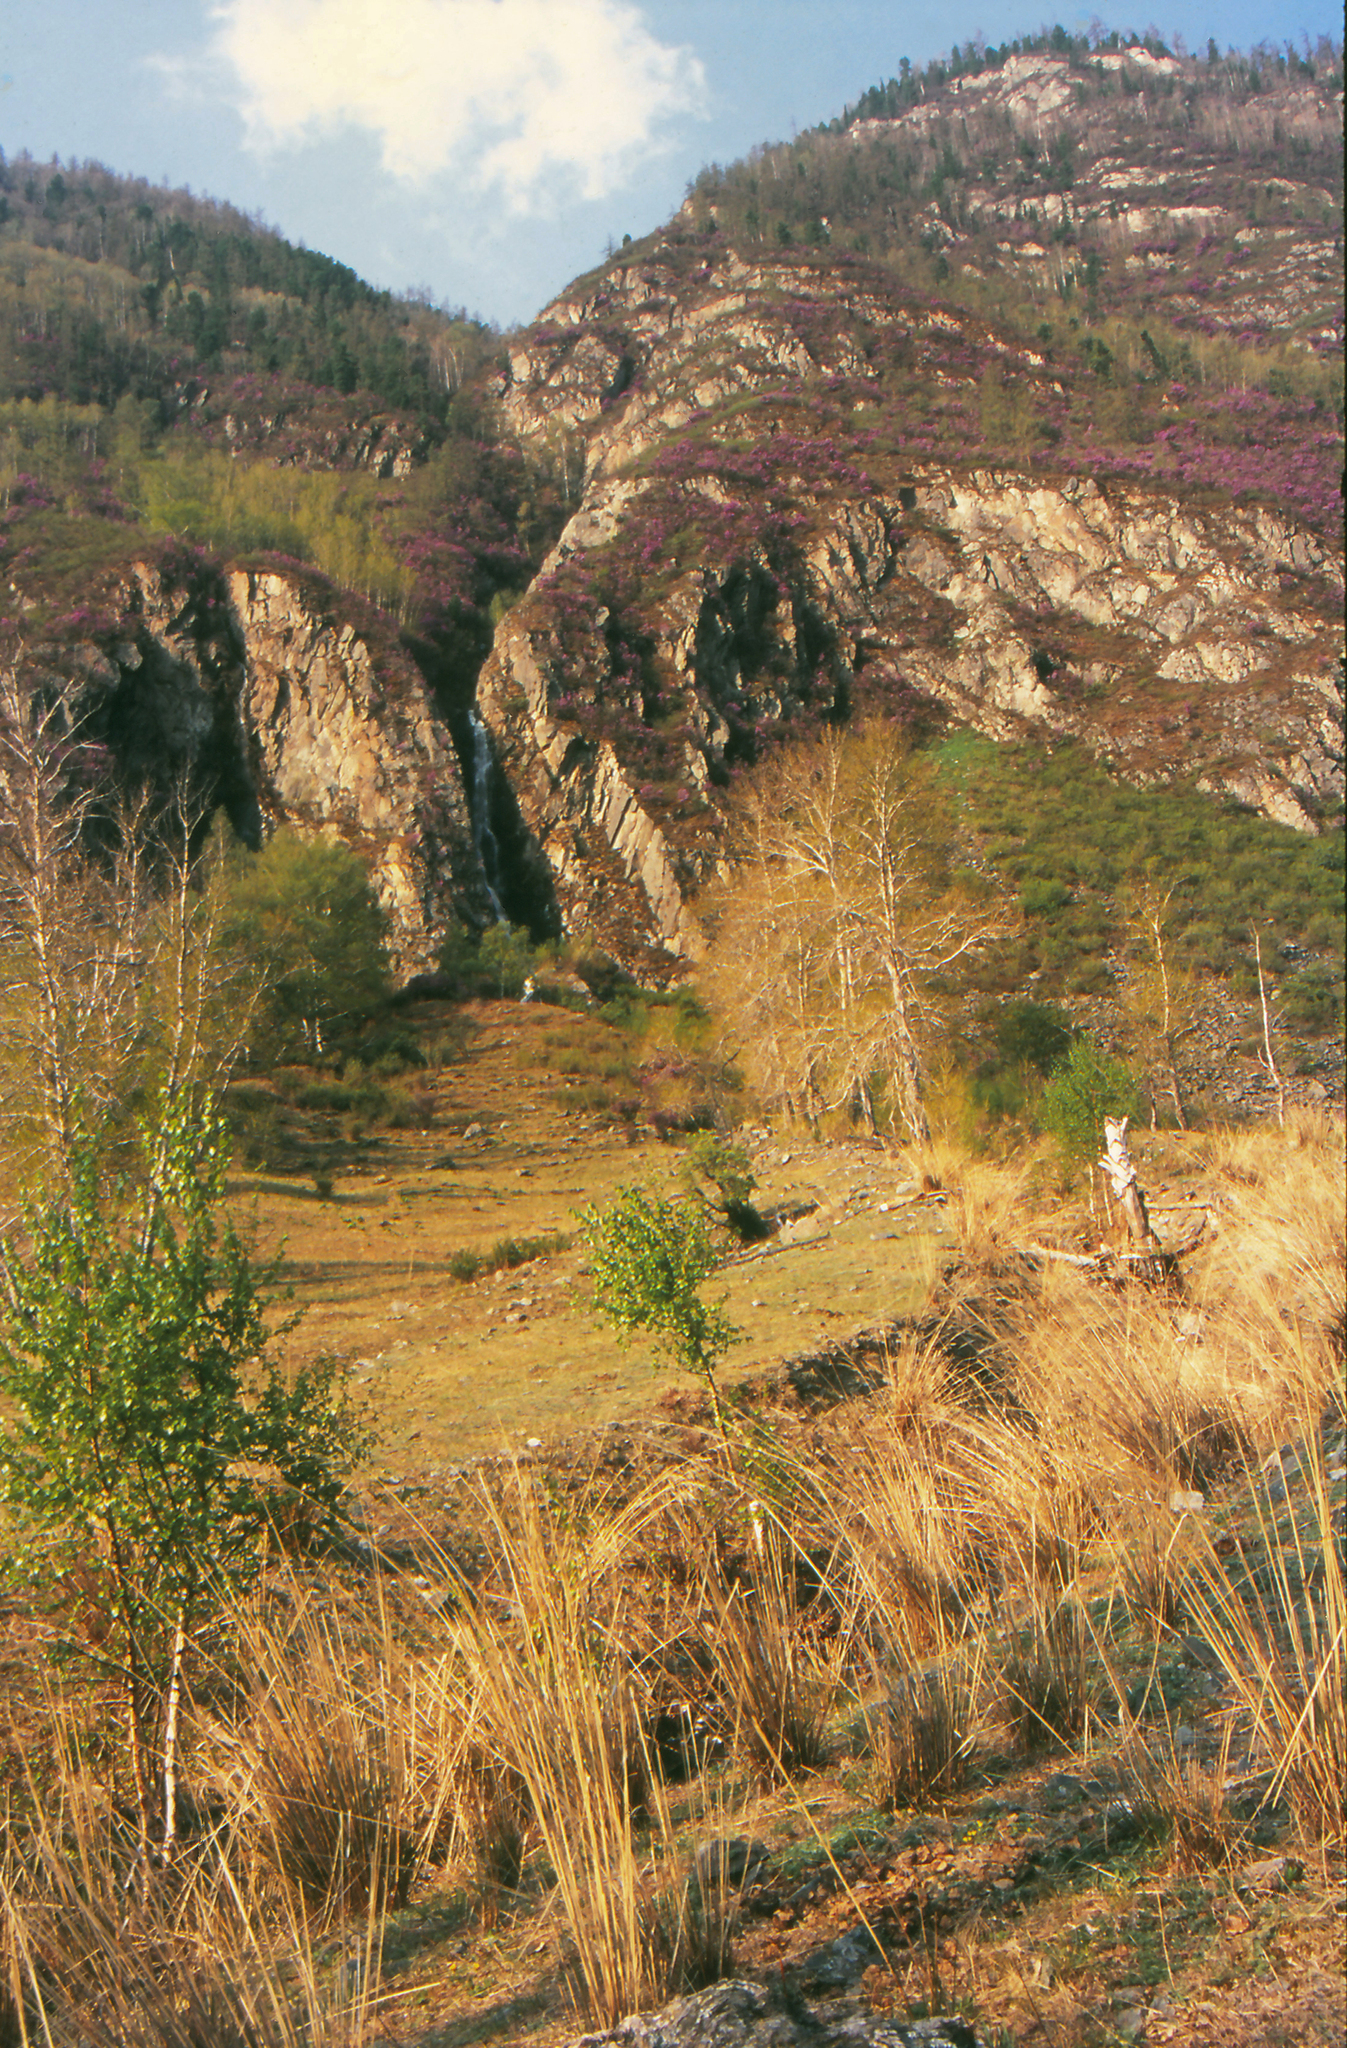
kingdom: Plantae
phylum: Tracheophyta
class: Liliopsida
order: Poales
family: Poaceae
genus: Neotrinia
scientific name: Neotrinia splendens
